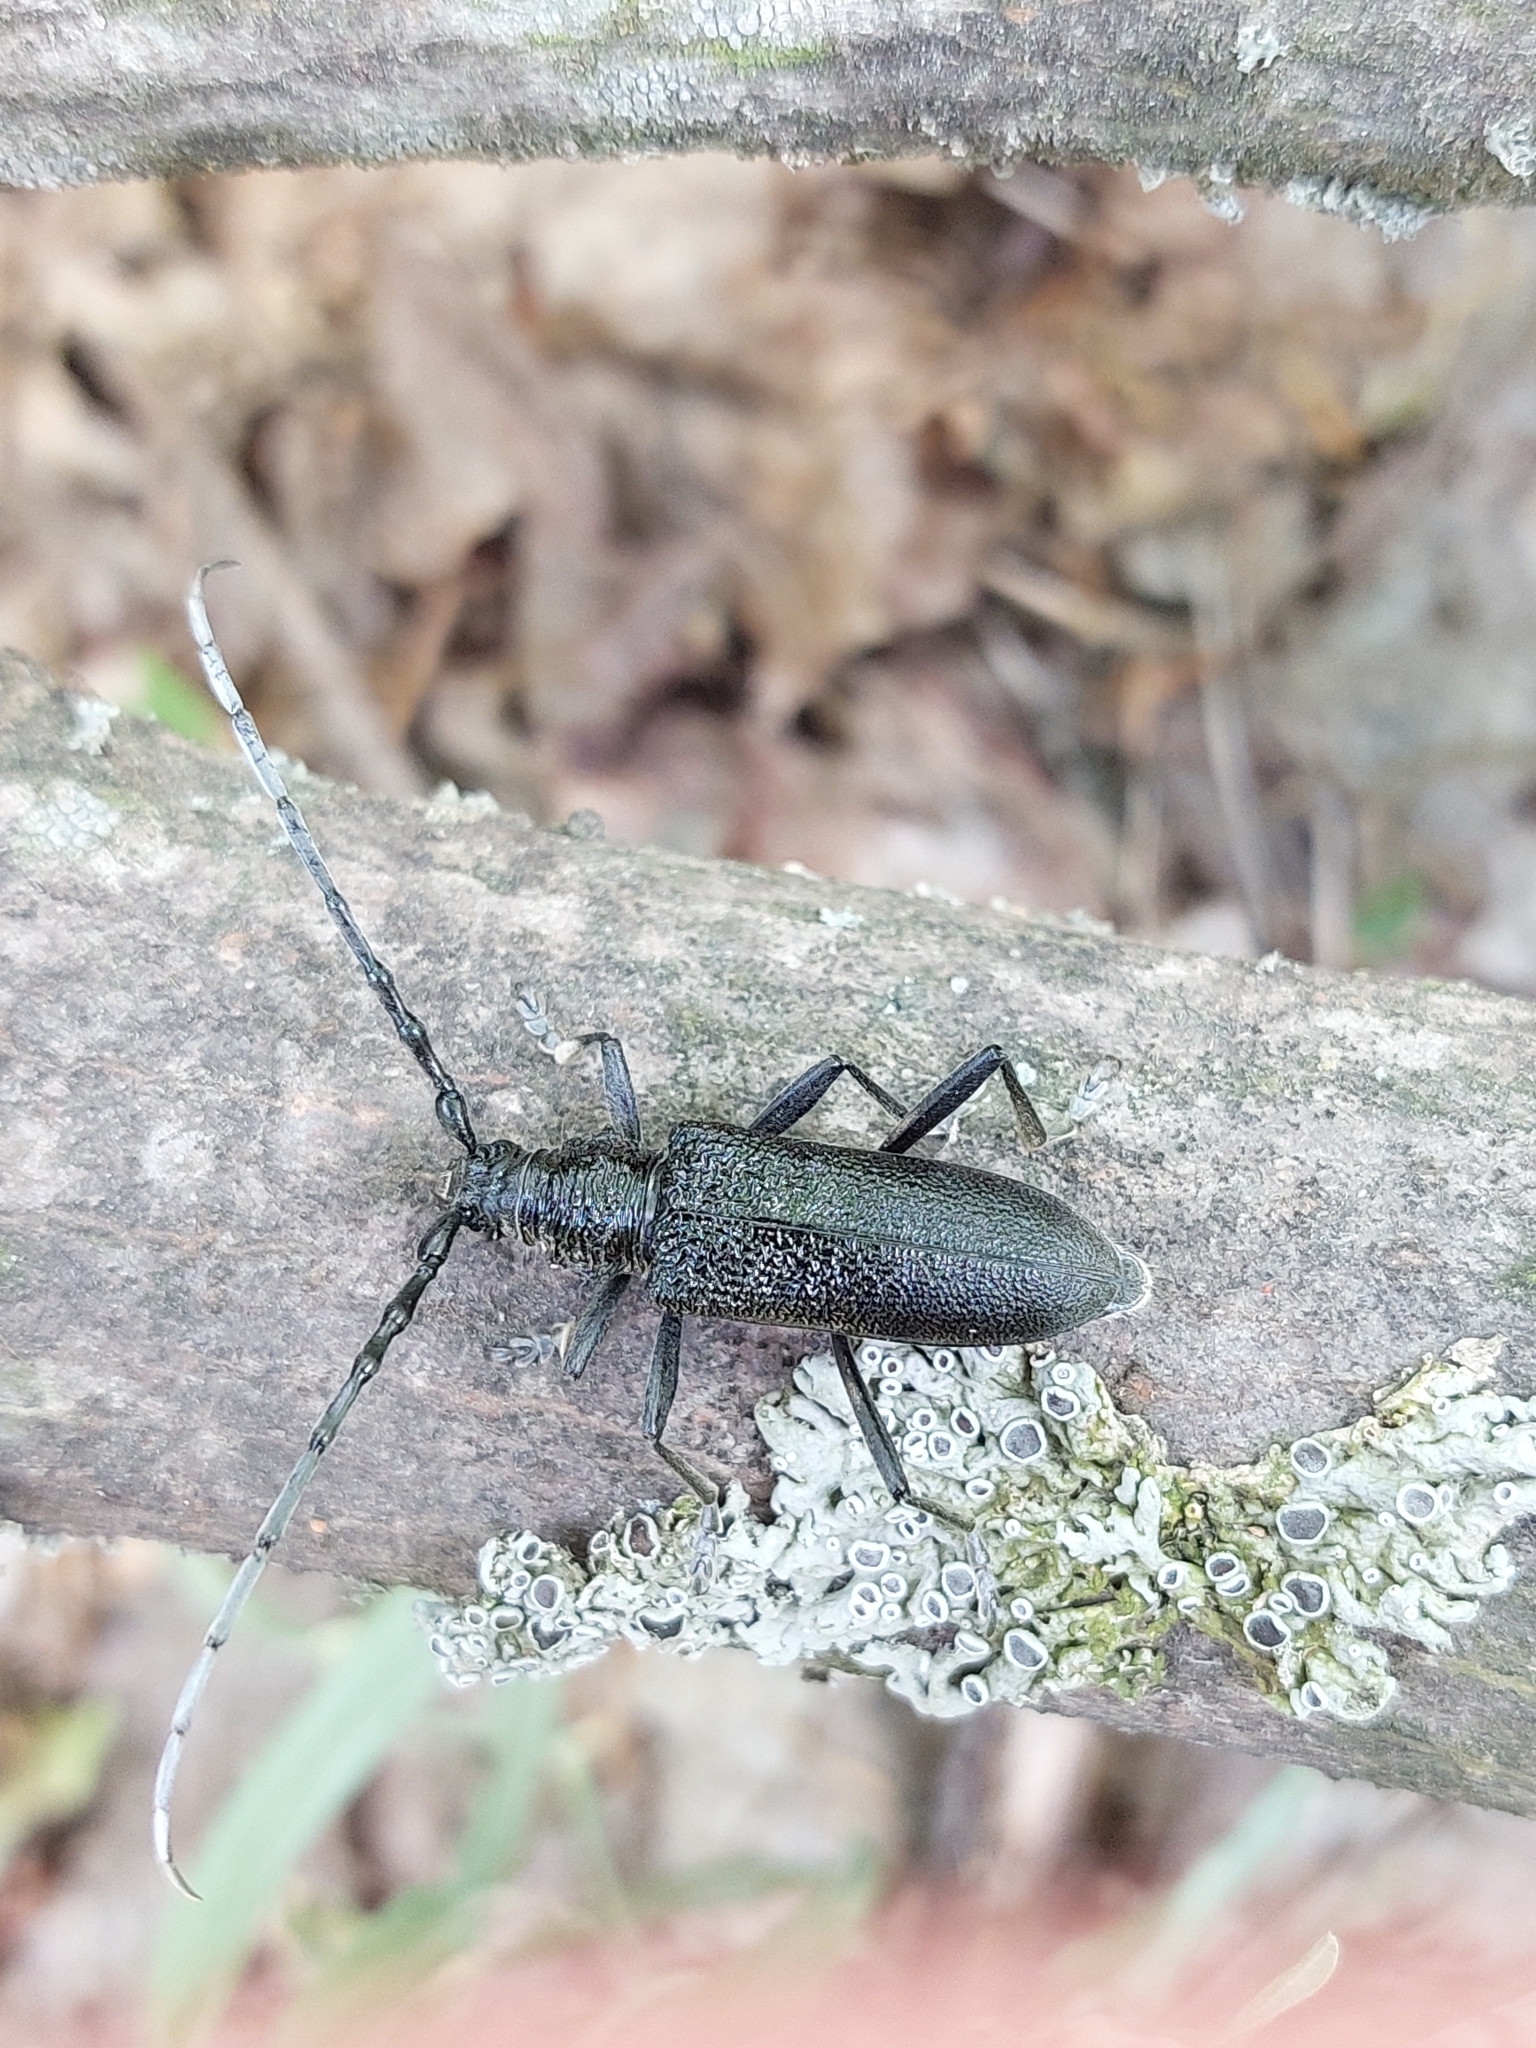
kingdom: Animalia
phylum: Arthropoda
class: Insecta
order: Coleoptera
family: Cerambycidae
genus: Cerambyx
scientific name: Cerambyx scopolii
